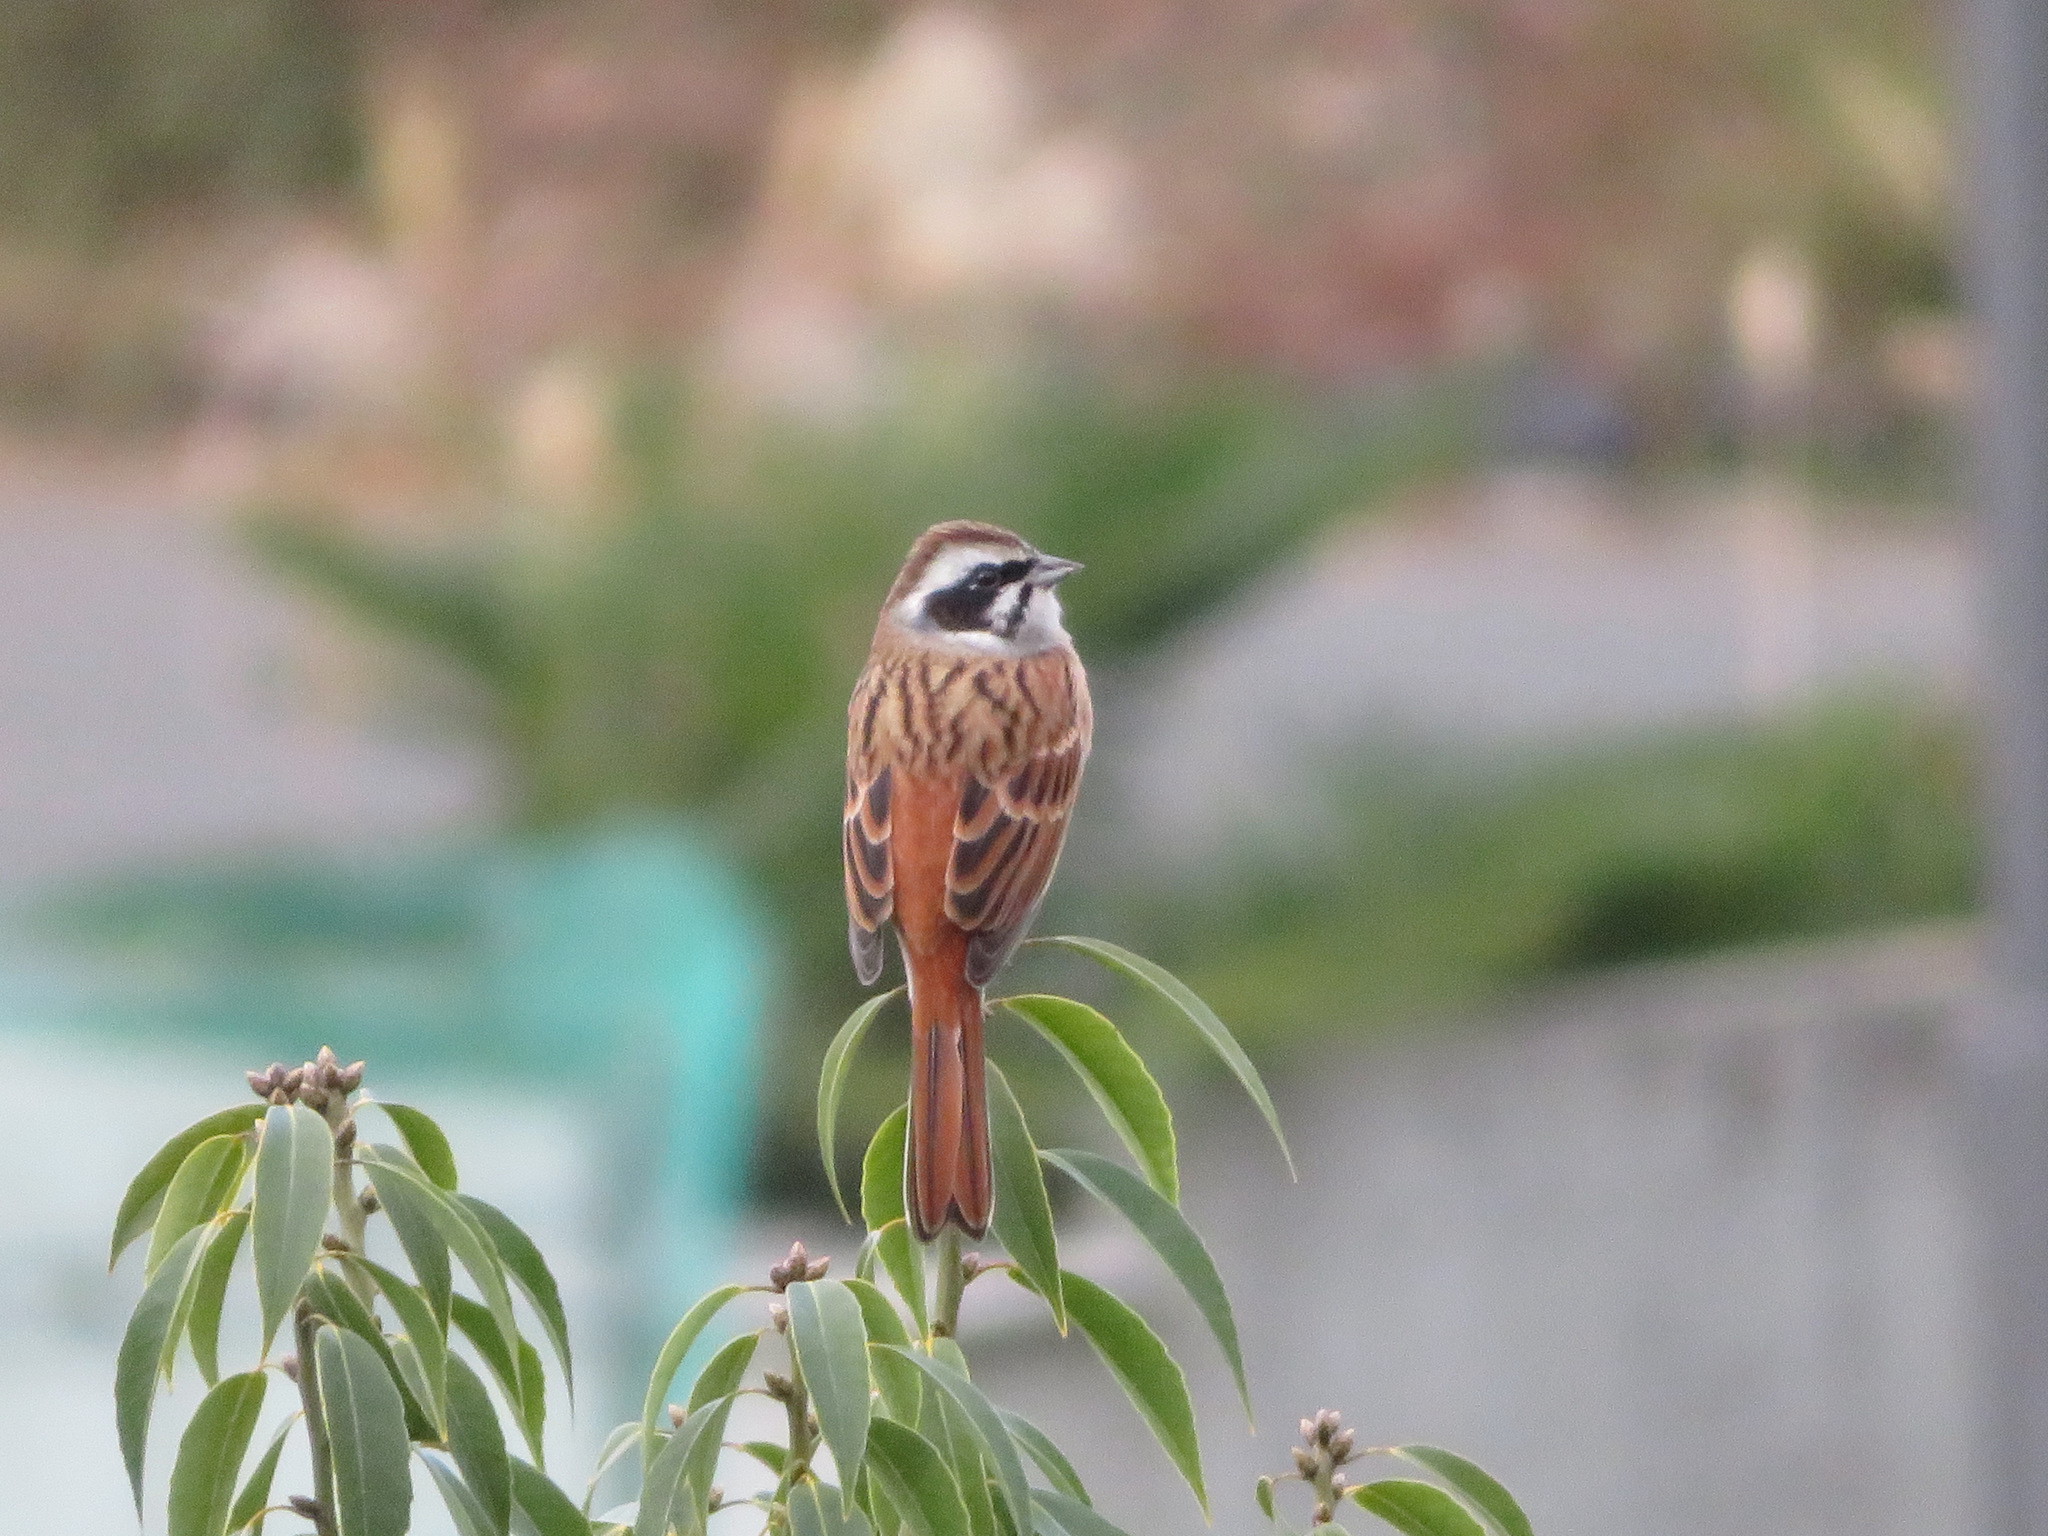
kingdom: Animalia
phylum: Chordata
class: Aves
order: Passeriformes
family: Emberizidae
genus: Emberiza
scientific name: Emberiza cioides
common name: Meadow bunting
